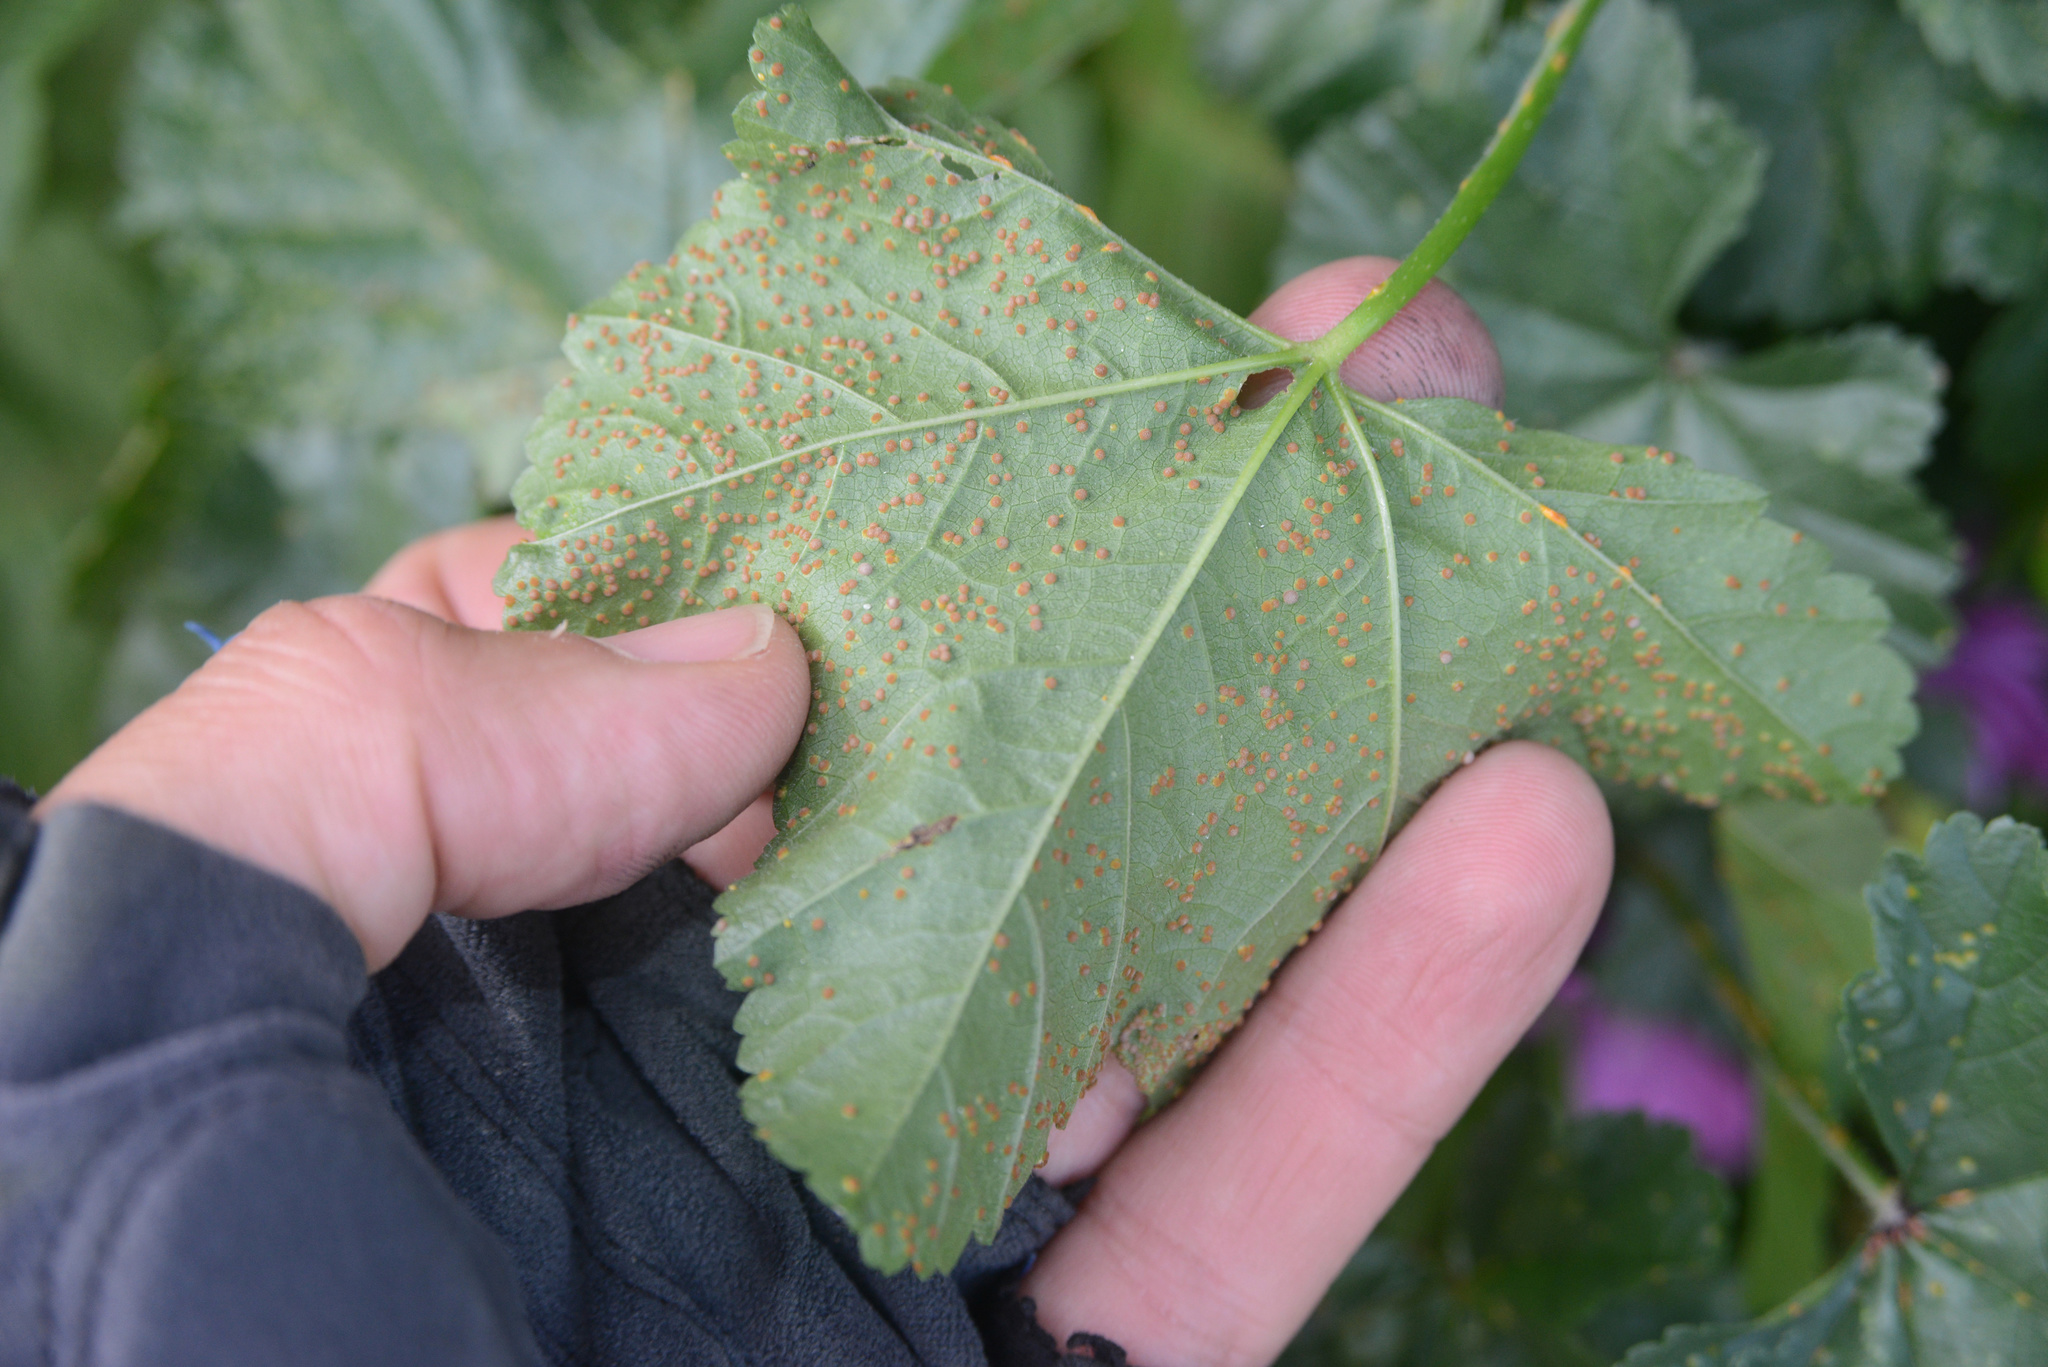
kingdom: Fungi
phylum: Basidiomycota
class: Pucciniomycetes
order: Pucciniales
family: Pucciniaceae
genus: Puccinia
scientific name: Puccinia malvacearum
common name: Hollyhock rust
